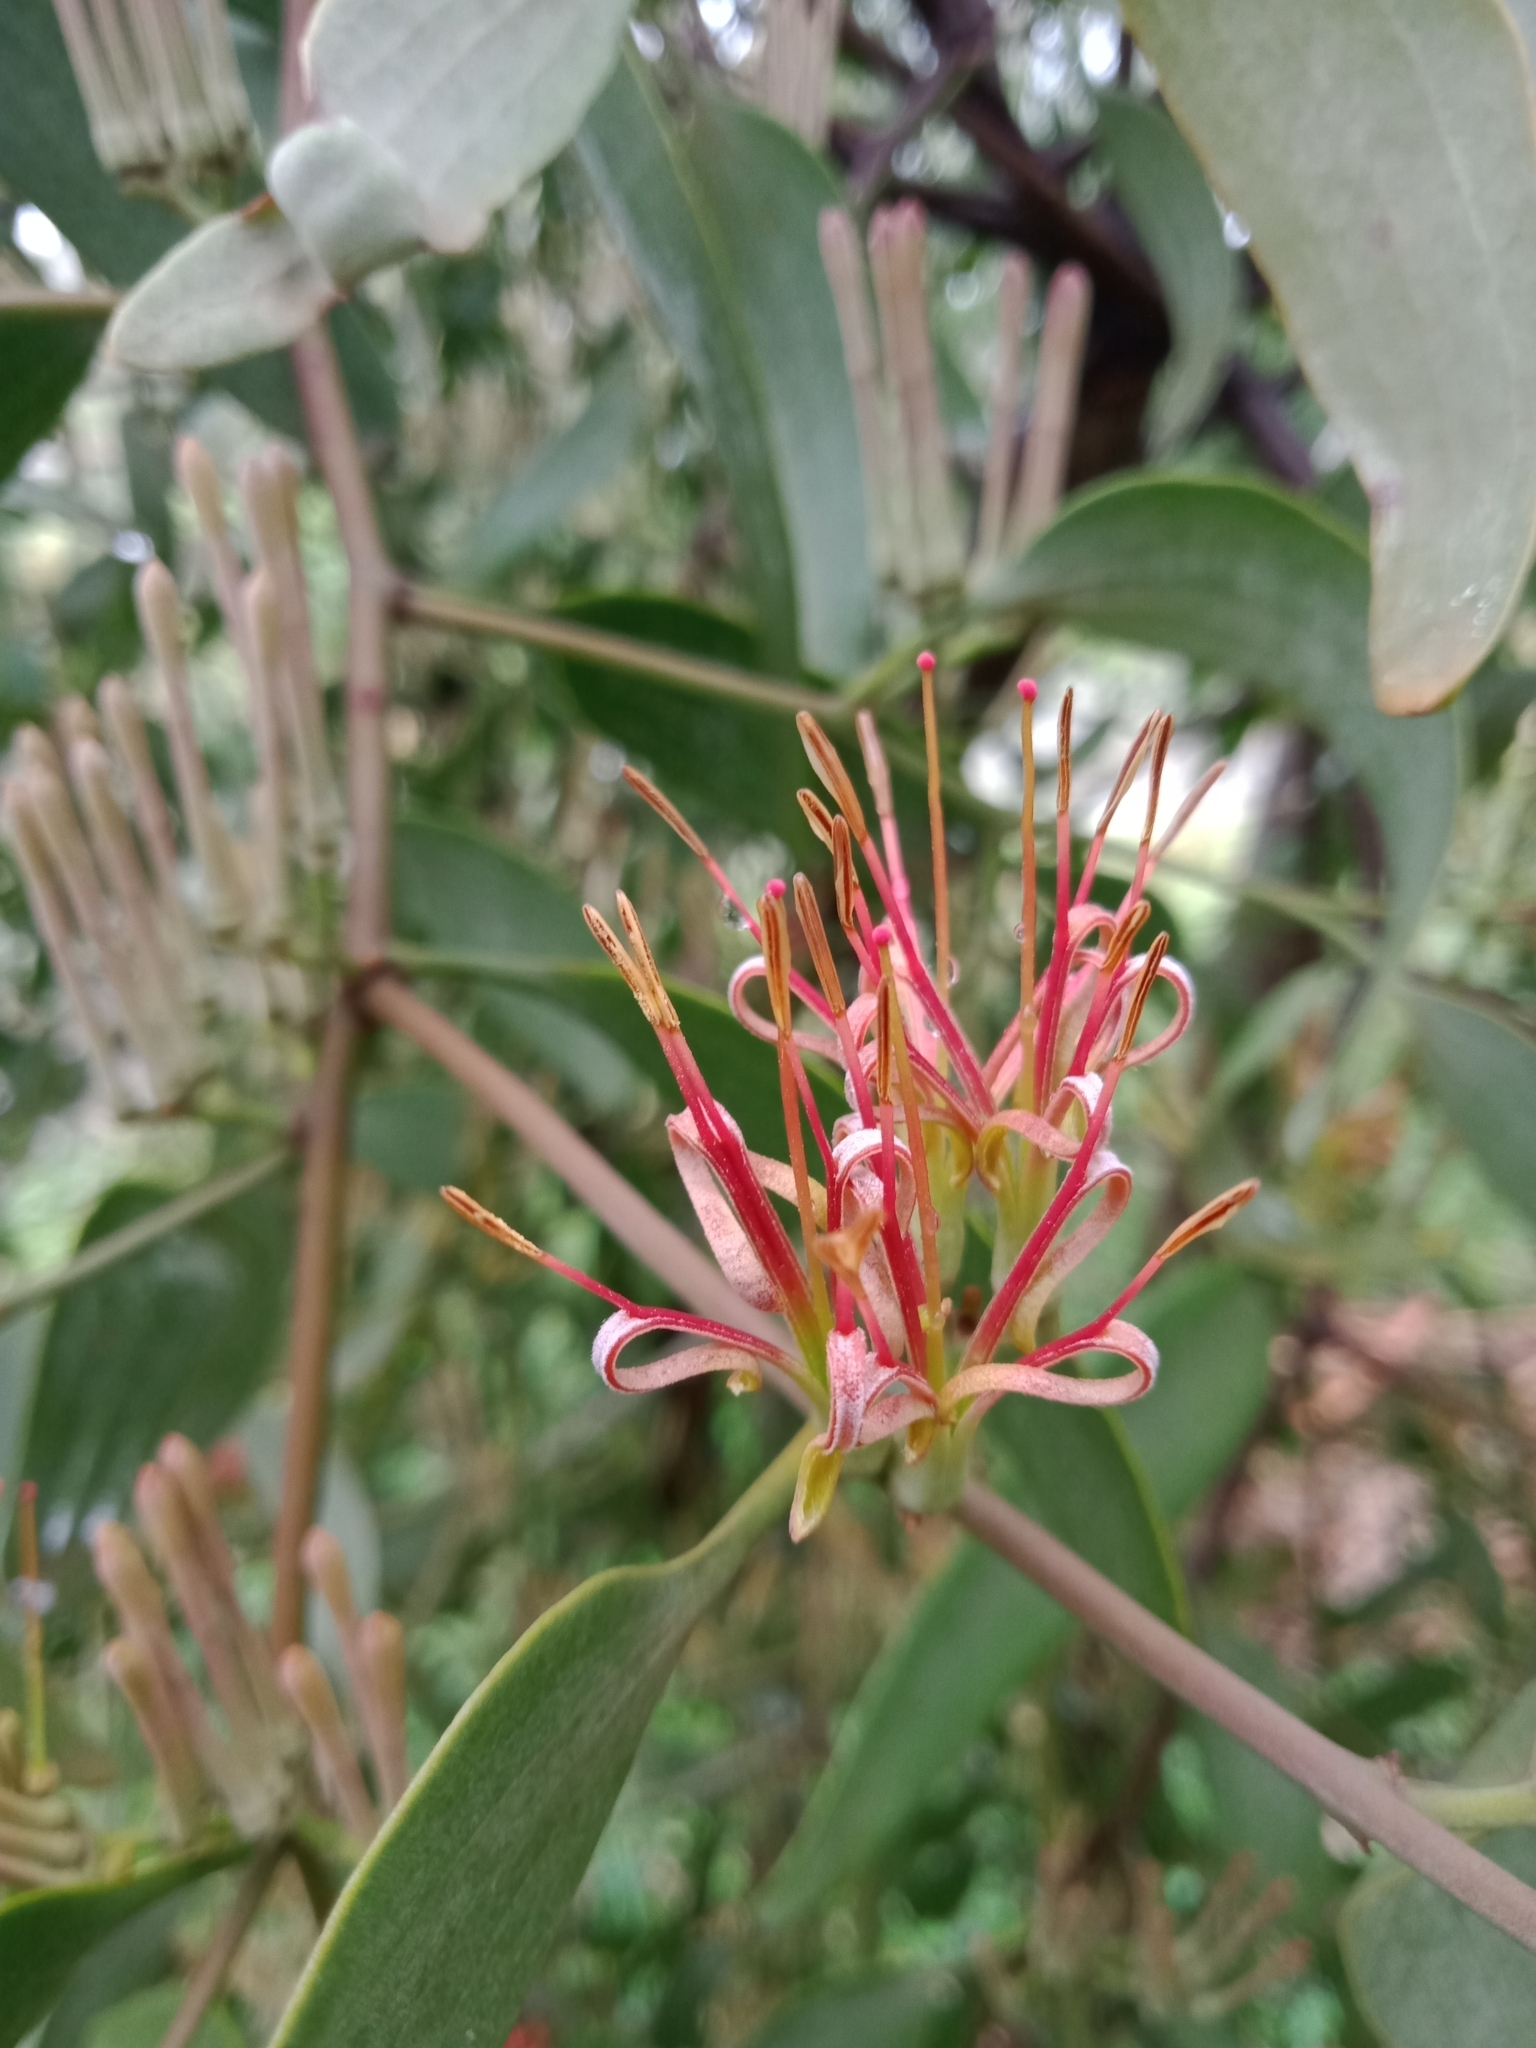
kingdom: Plantae
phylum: Tracheophyta
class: Magnoliopsida
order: Santalales
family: Loranthaceae
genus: Amyema
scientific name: Amyema quandang
